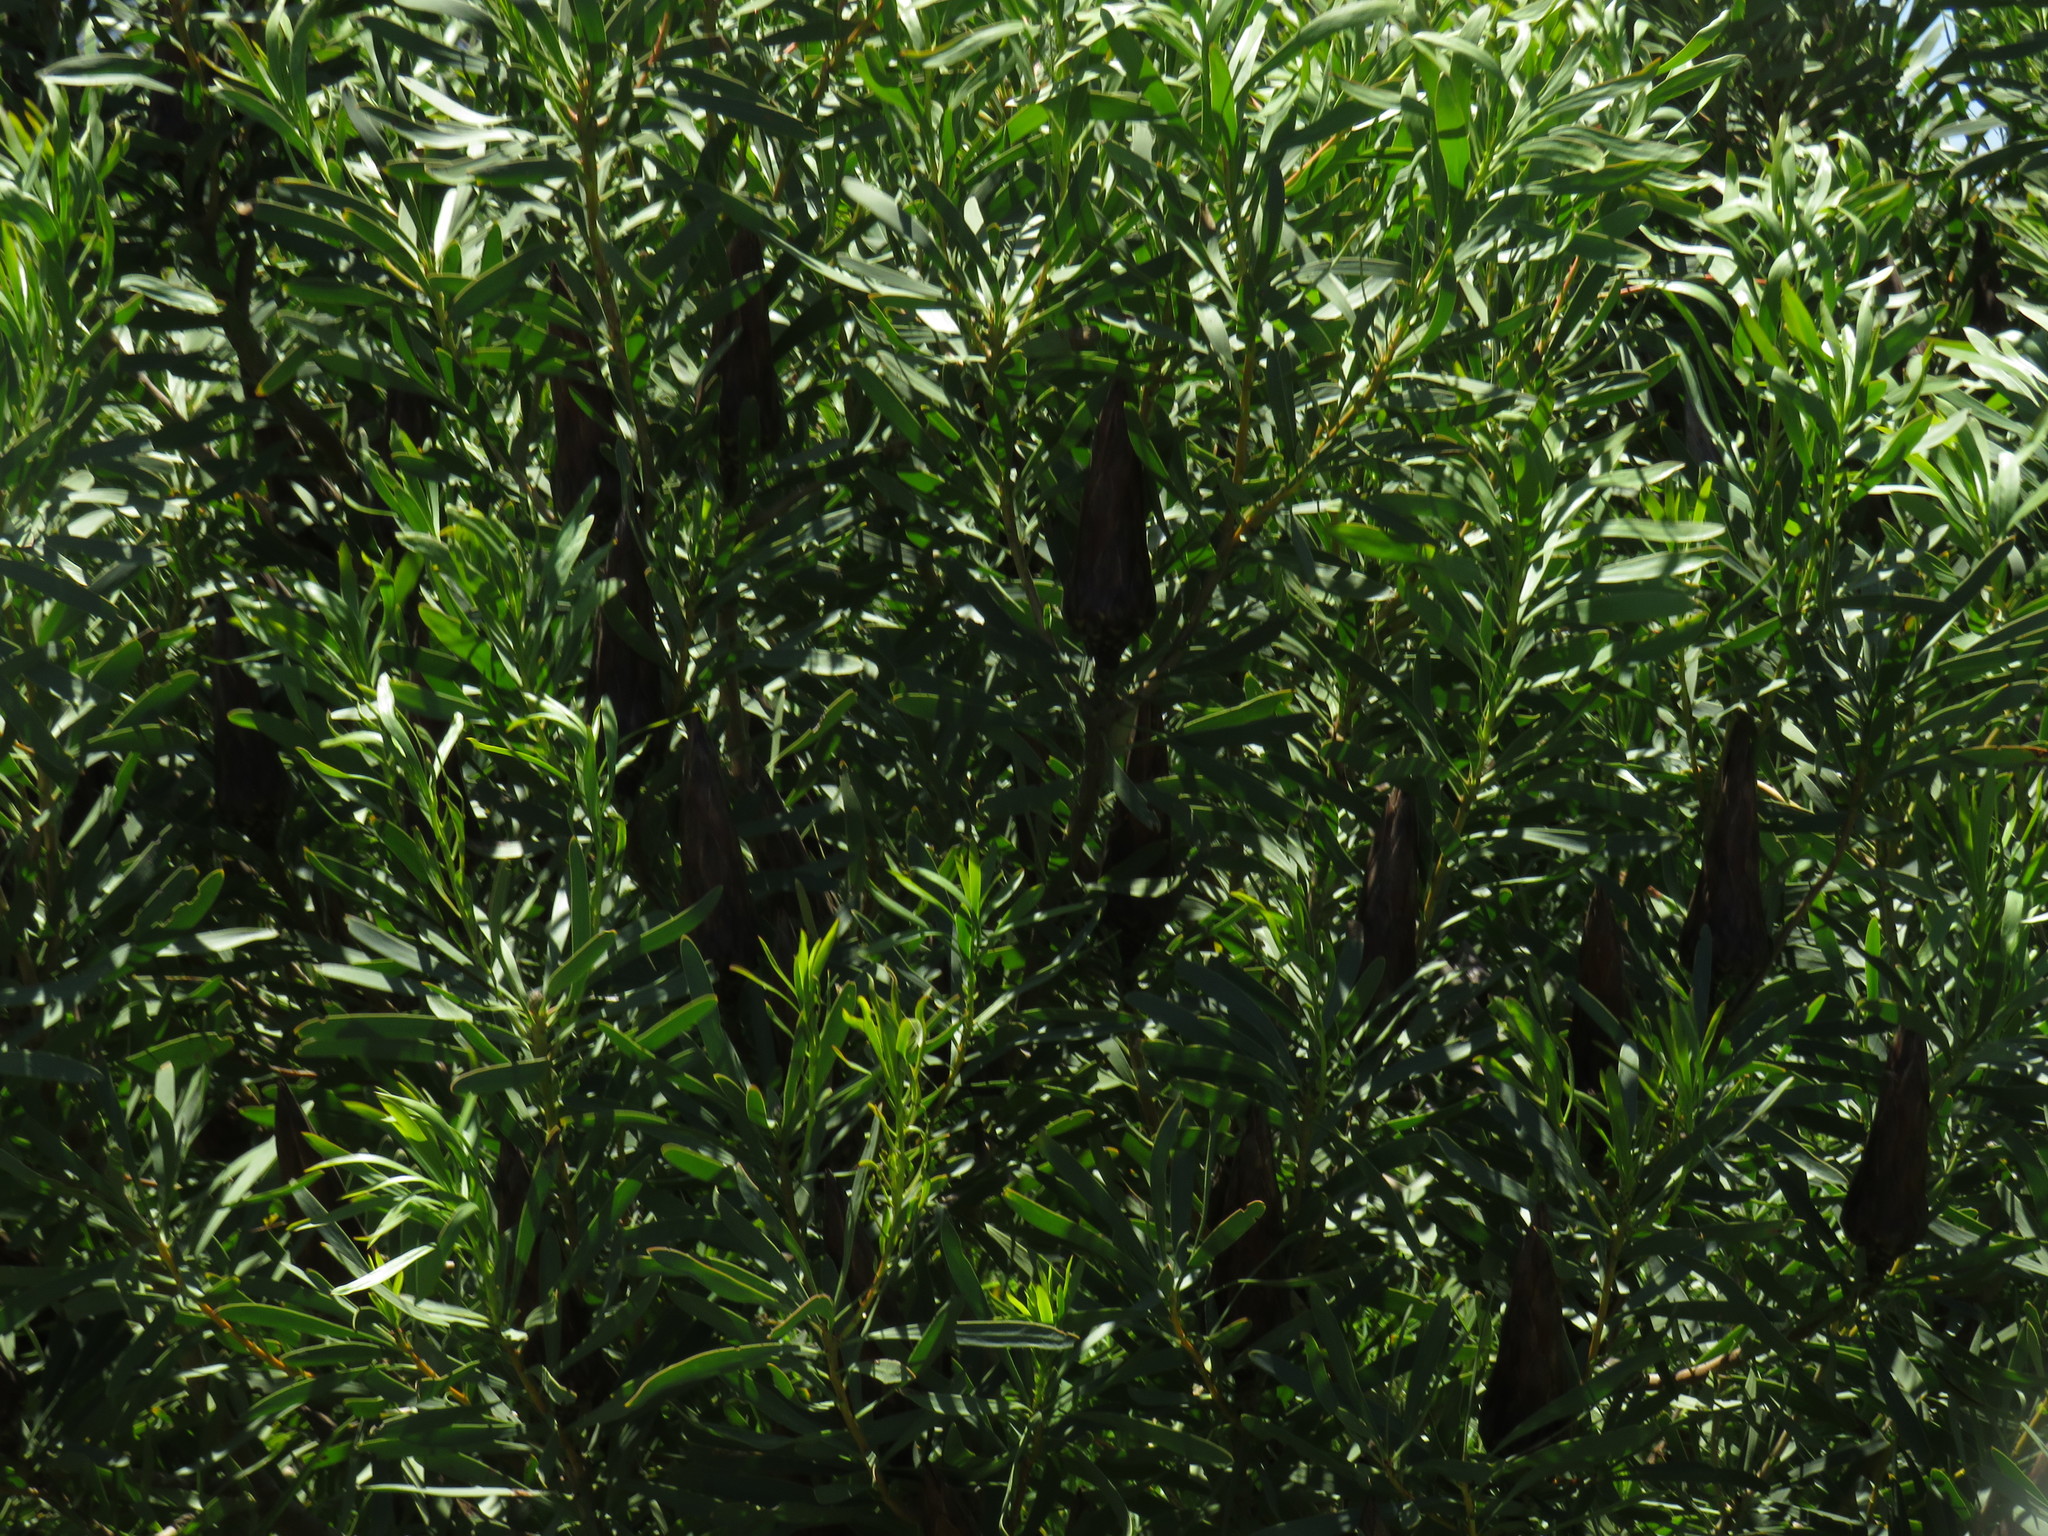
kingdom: Plantae
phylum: Tracheophyta
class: Magnoliopsida
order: Proteales
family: Proteaceae
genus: Protea
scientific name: Protea repens
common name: Sugarbush
